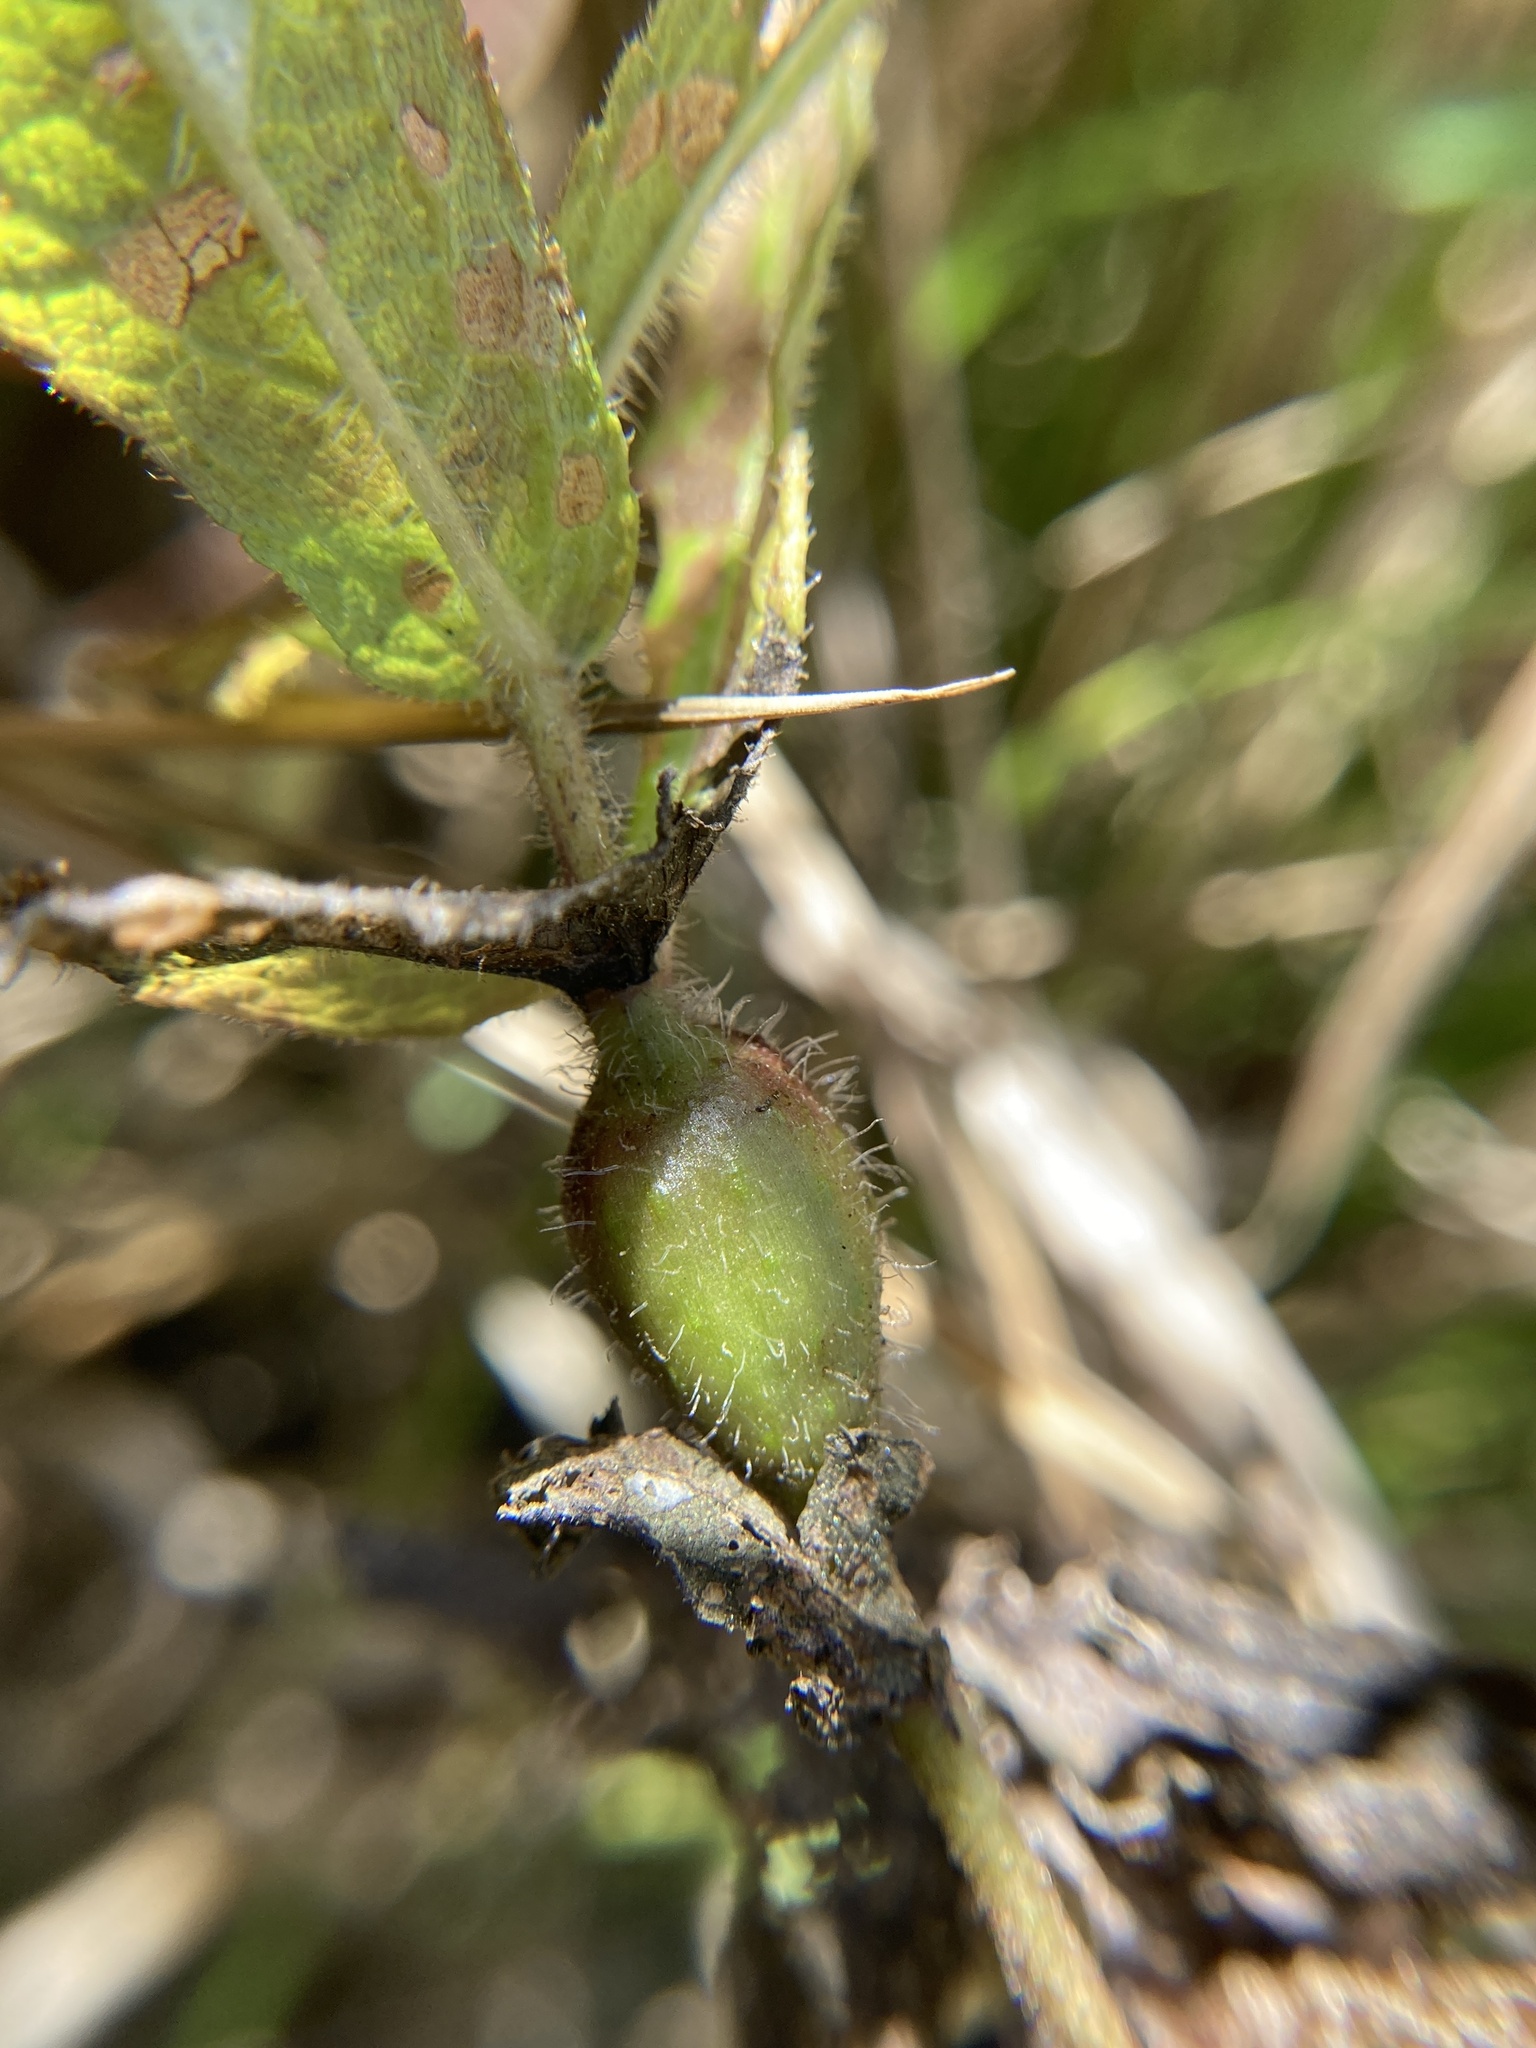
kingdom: Animalia
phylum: Arthropoda
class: Insecta
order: Diptera
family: Cecidomyiidae
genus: Neolasioptera
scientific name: Neolasioptera perfoliata
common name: Boneset stem midge
